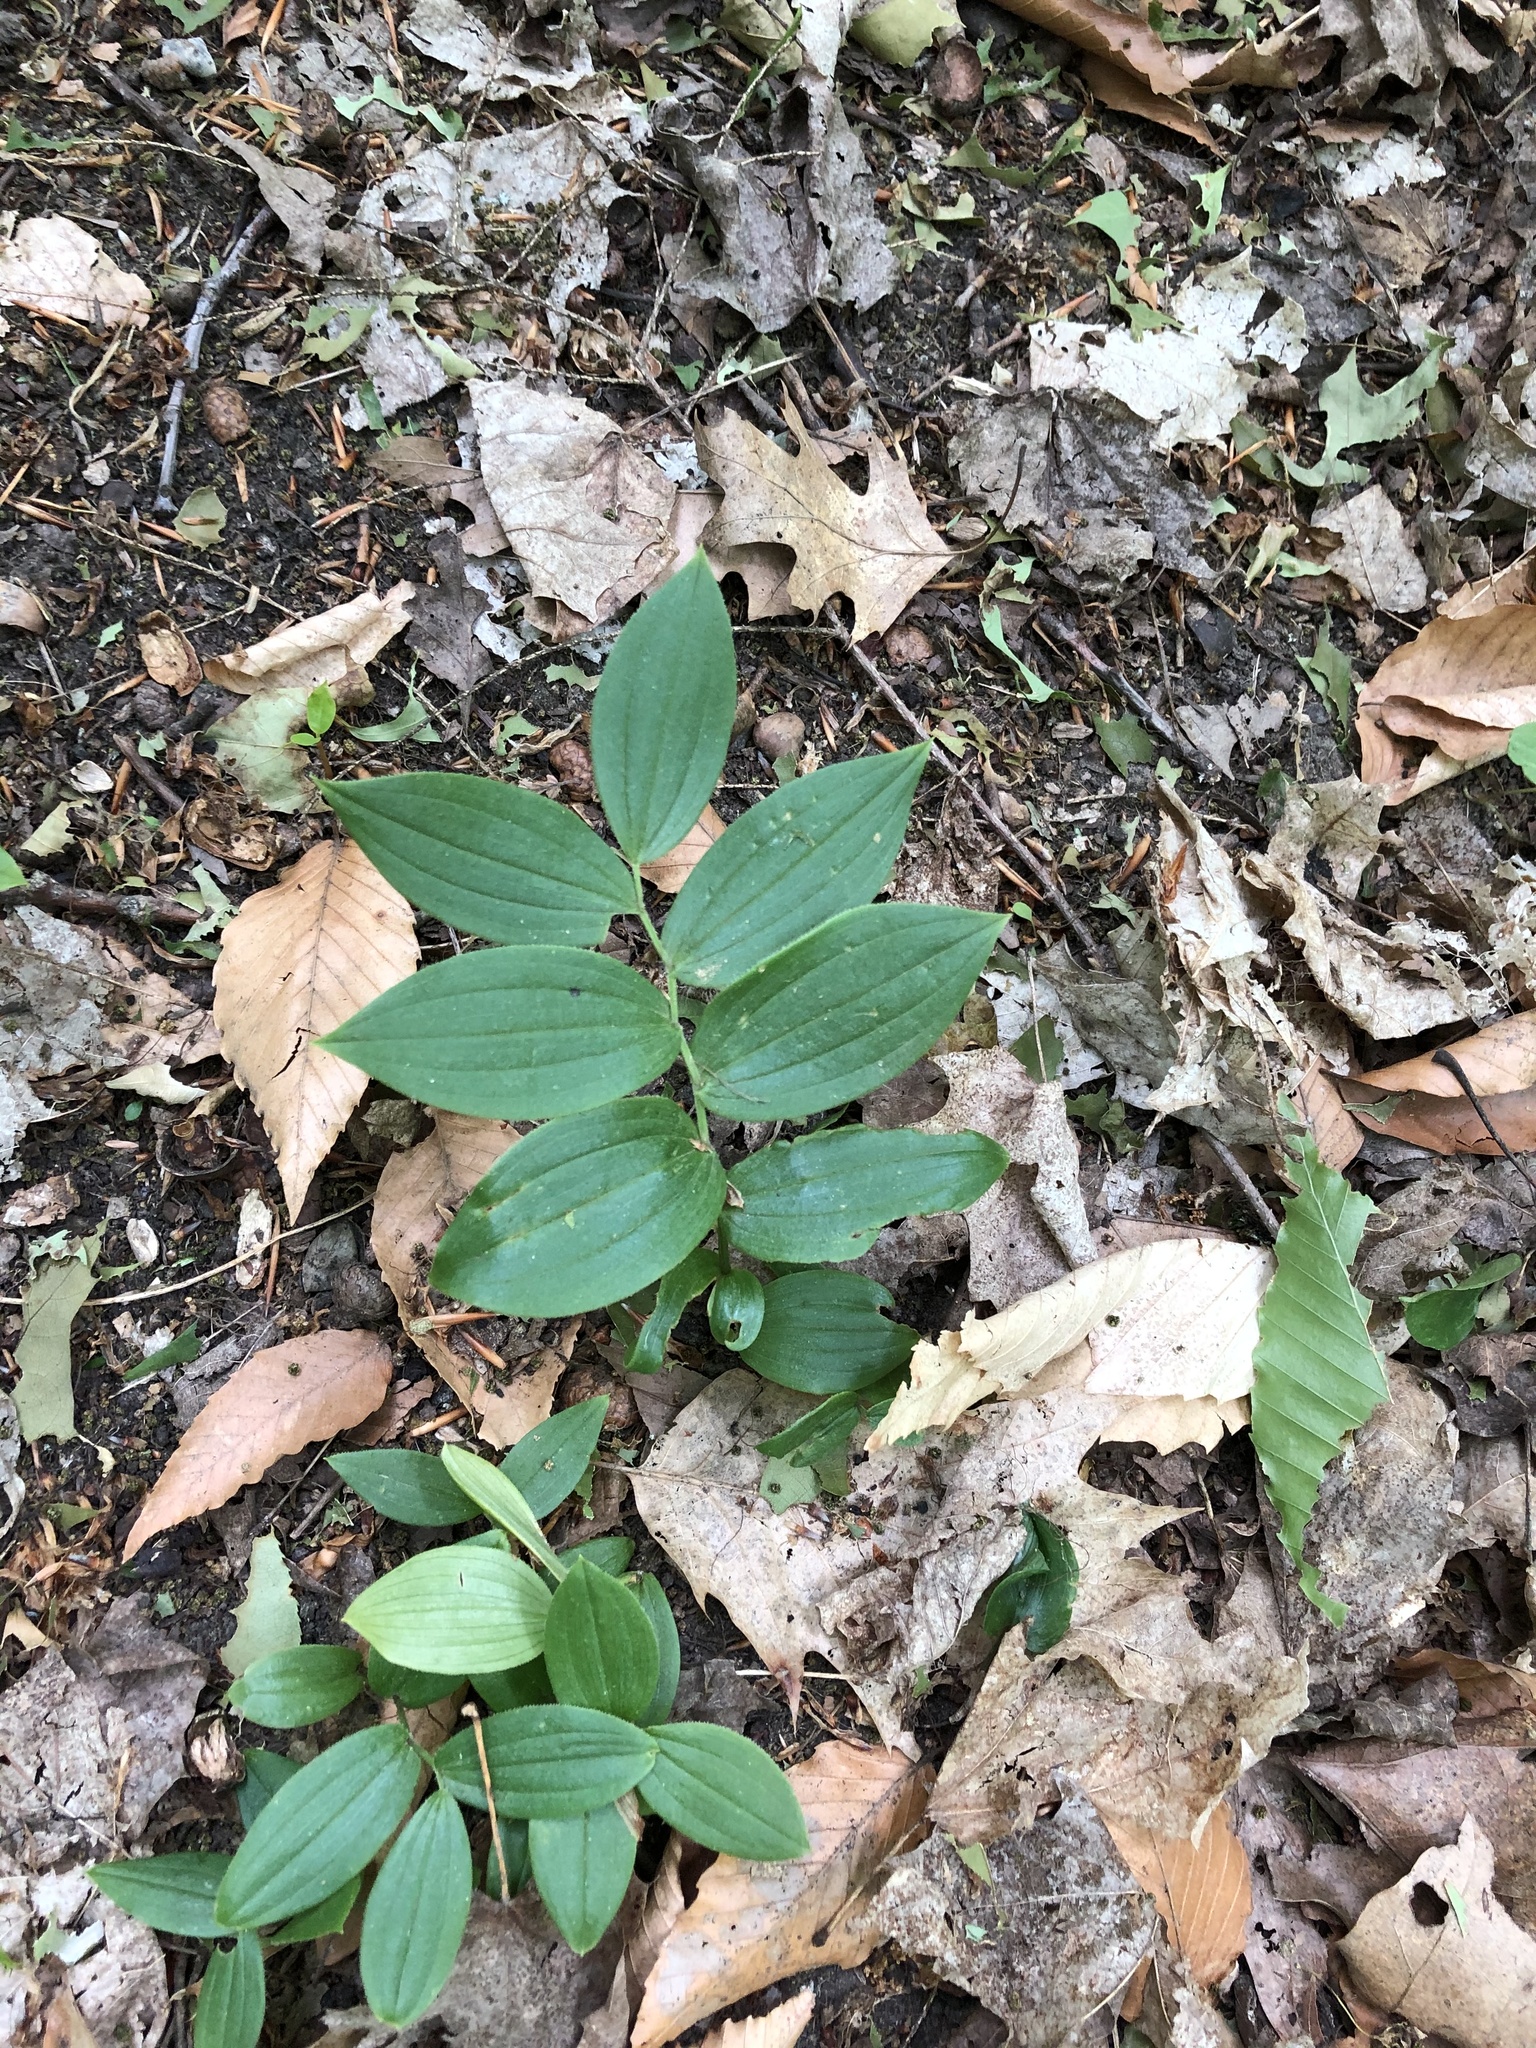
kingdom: Plantae
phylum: Tracheophyta
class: Liliopsida
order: Liliales
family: Liliaceae
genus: Streptopus
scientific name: Streptopus lanceolatus
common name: Rose mandarin
